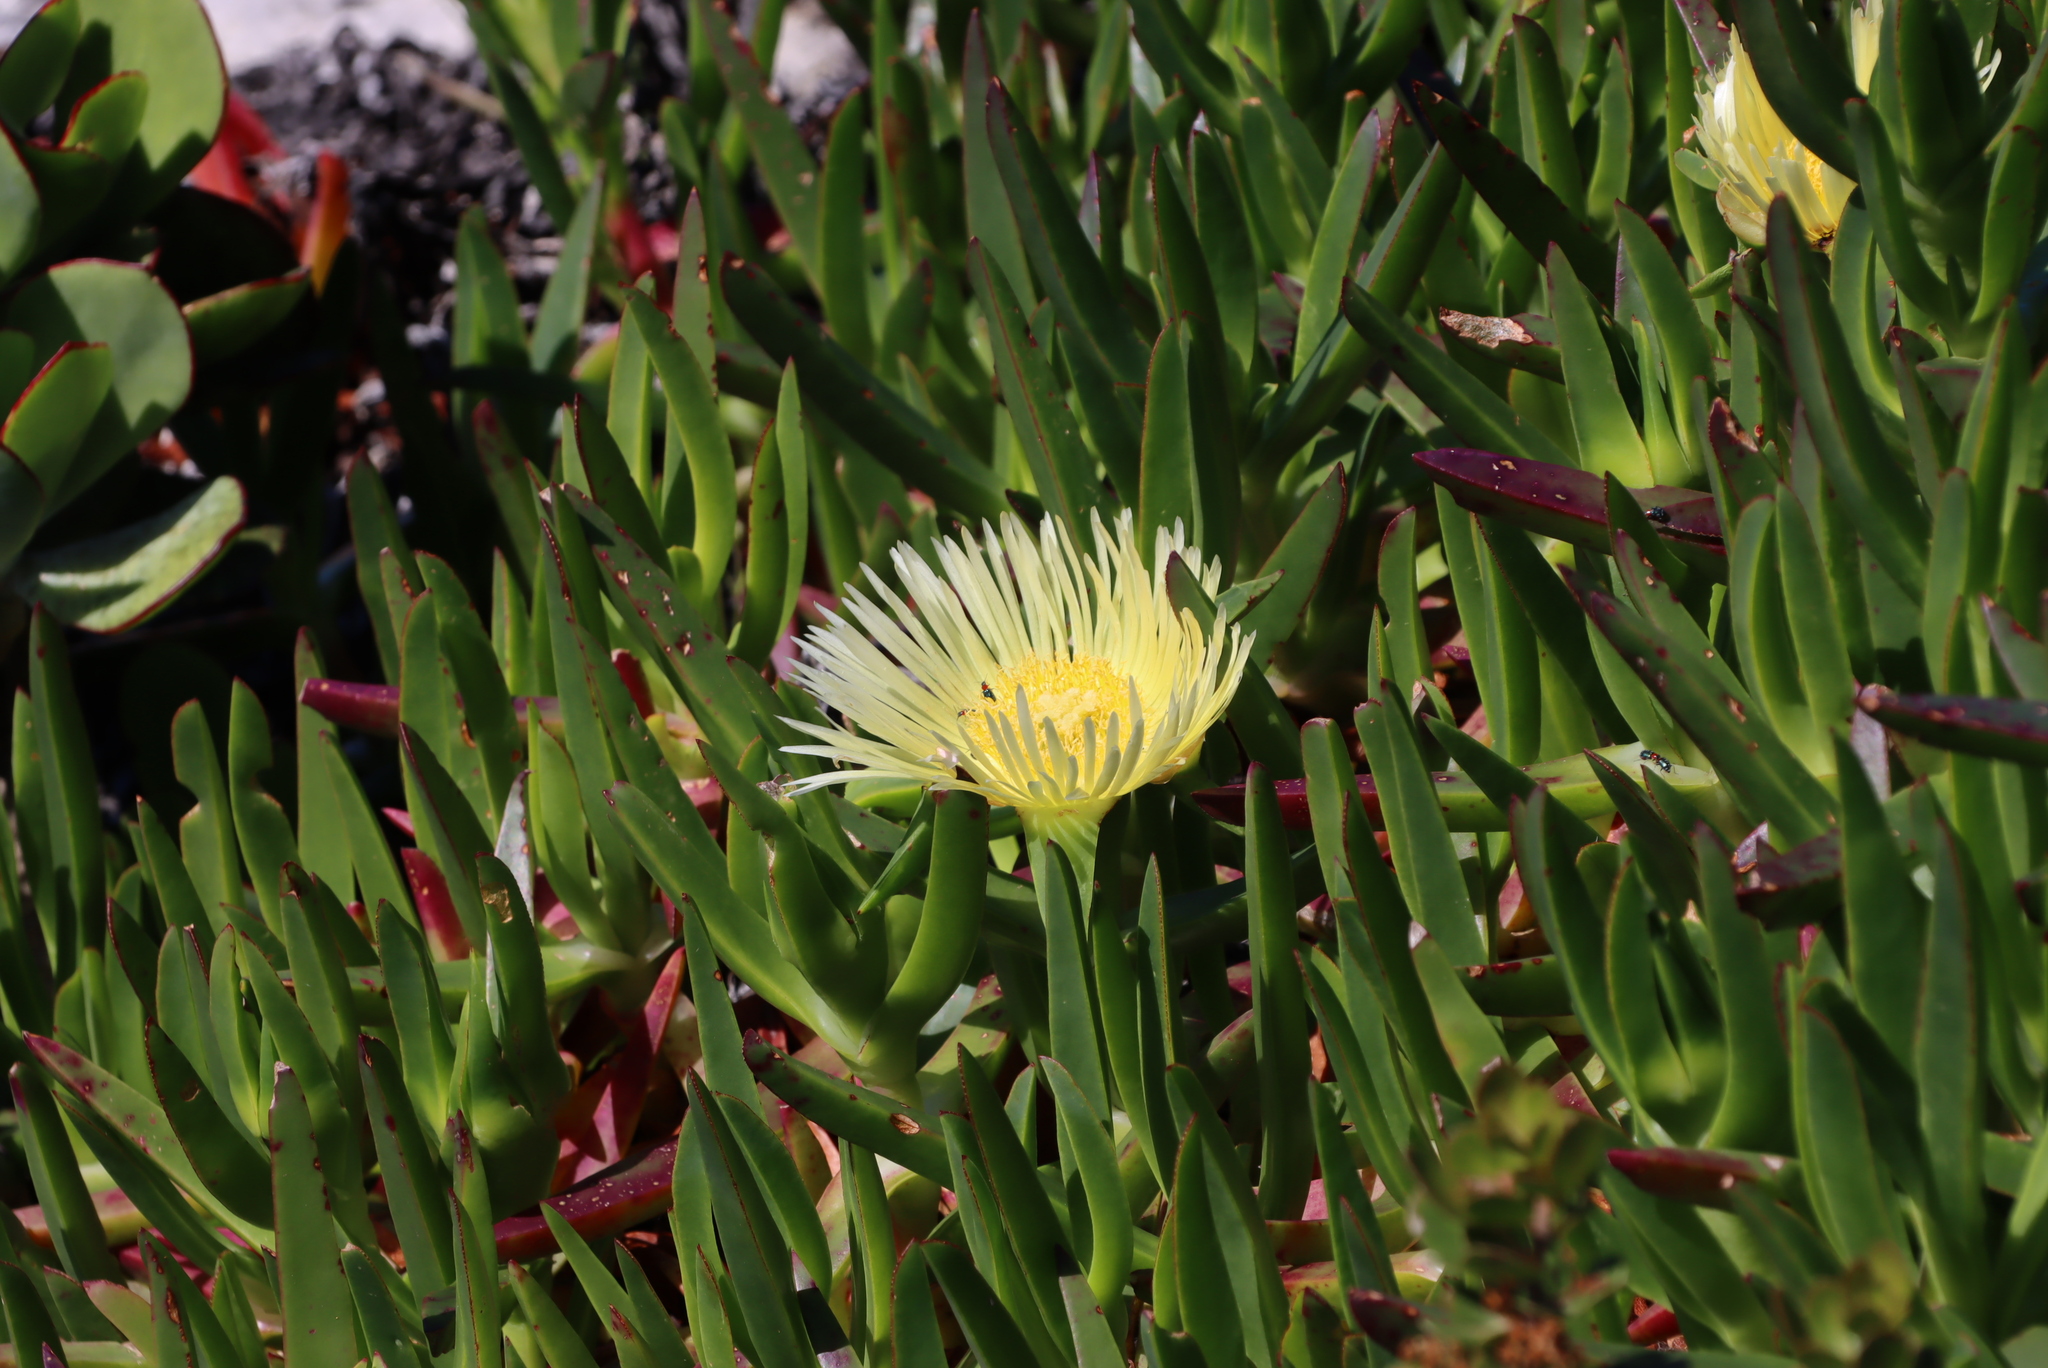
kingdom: Plantae
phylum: Tracheophyta
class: Magnoliopsida
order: Caryophyllales
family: Aizoaceae
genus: Carpobrotus
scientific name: Carpobrotus edulis
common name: Hottentot-fig
